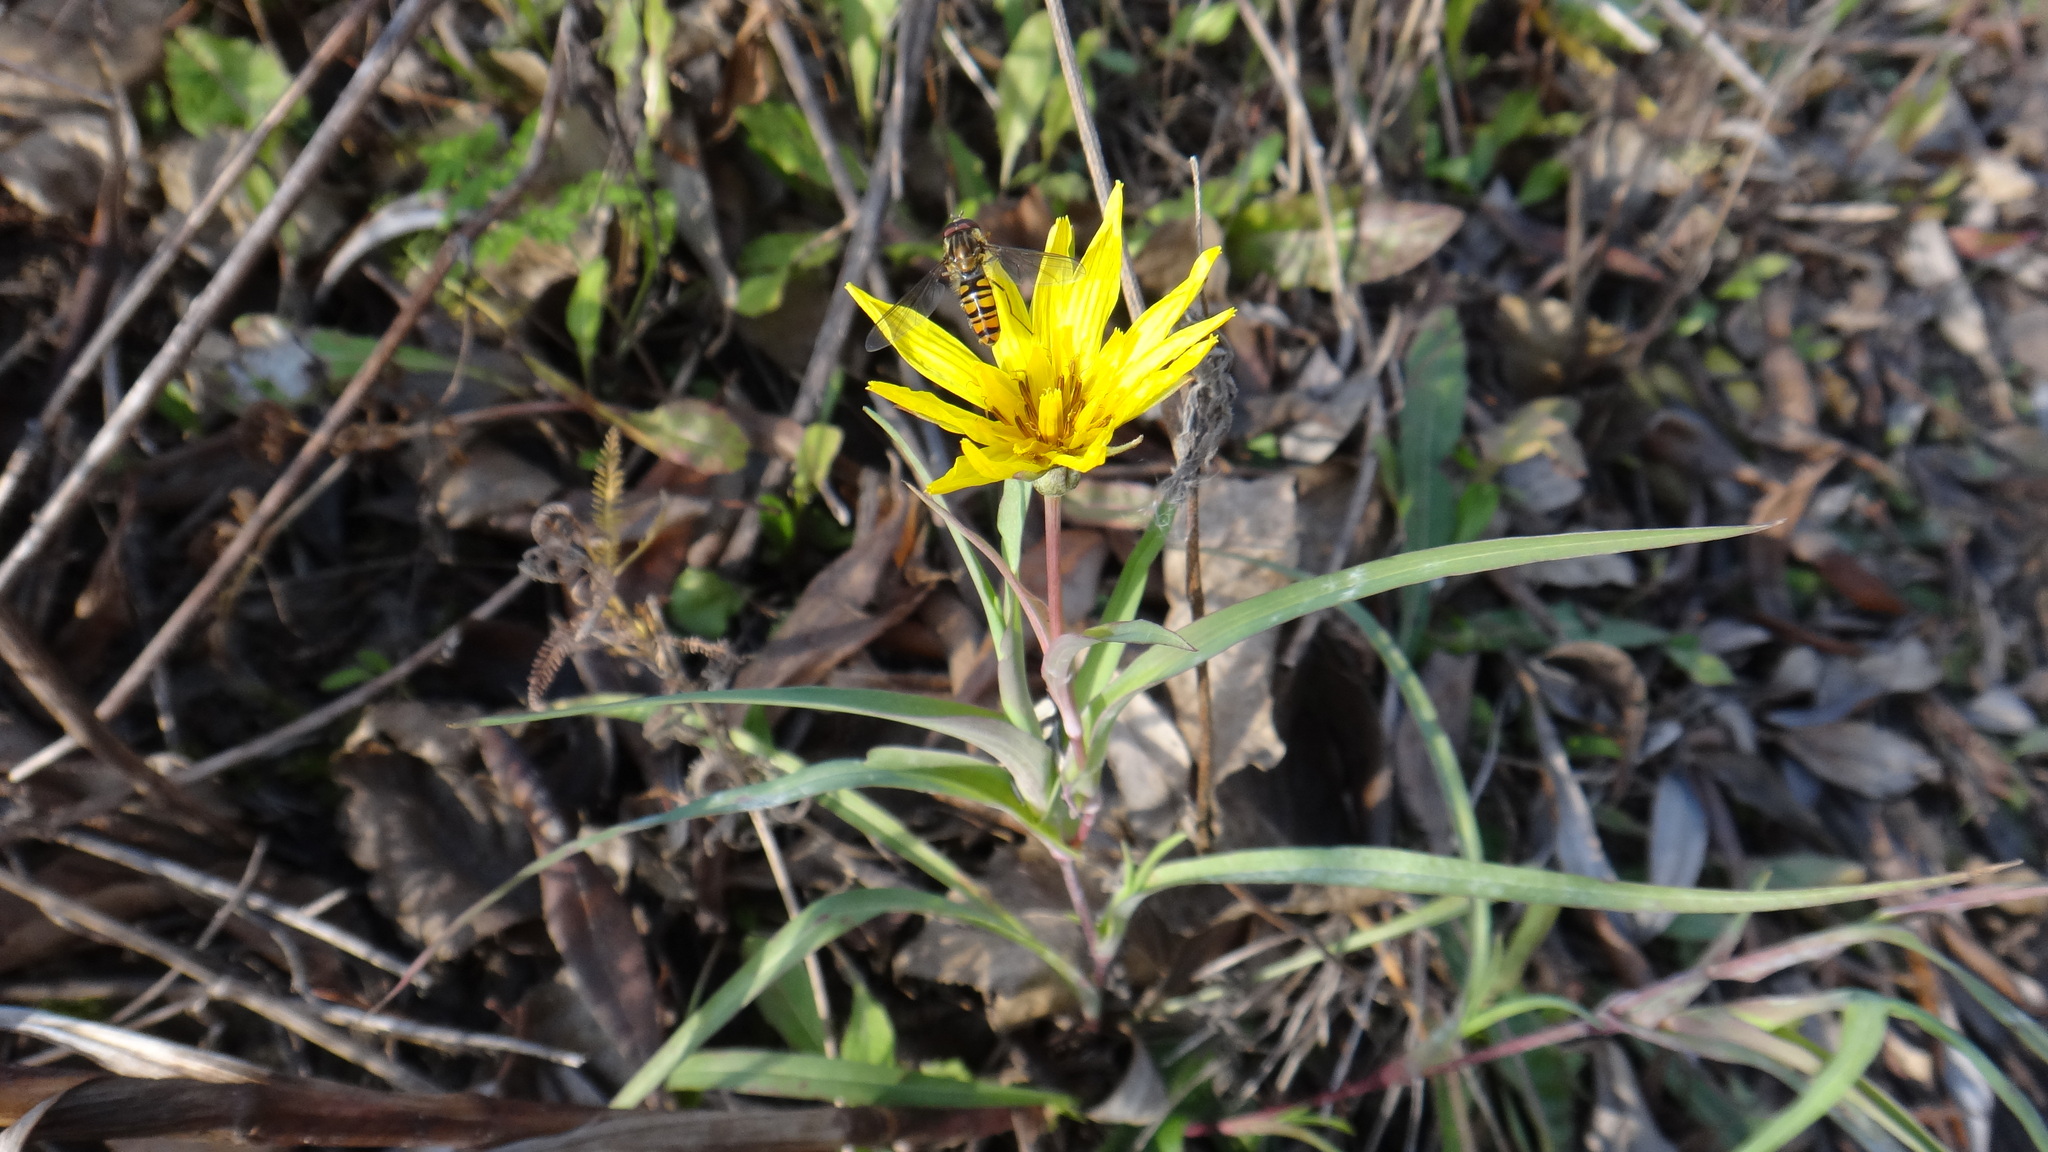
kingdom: Plantae
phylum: Tracheophyta
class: Magnoliopsida
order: Asterales
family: Asteraceae
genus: Tragopogon
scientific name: Tragopogon orientalis
